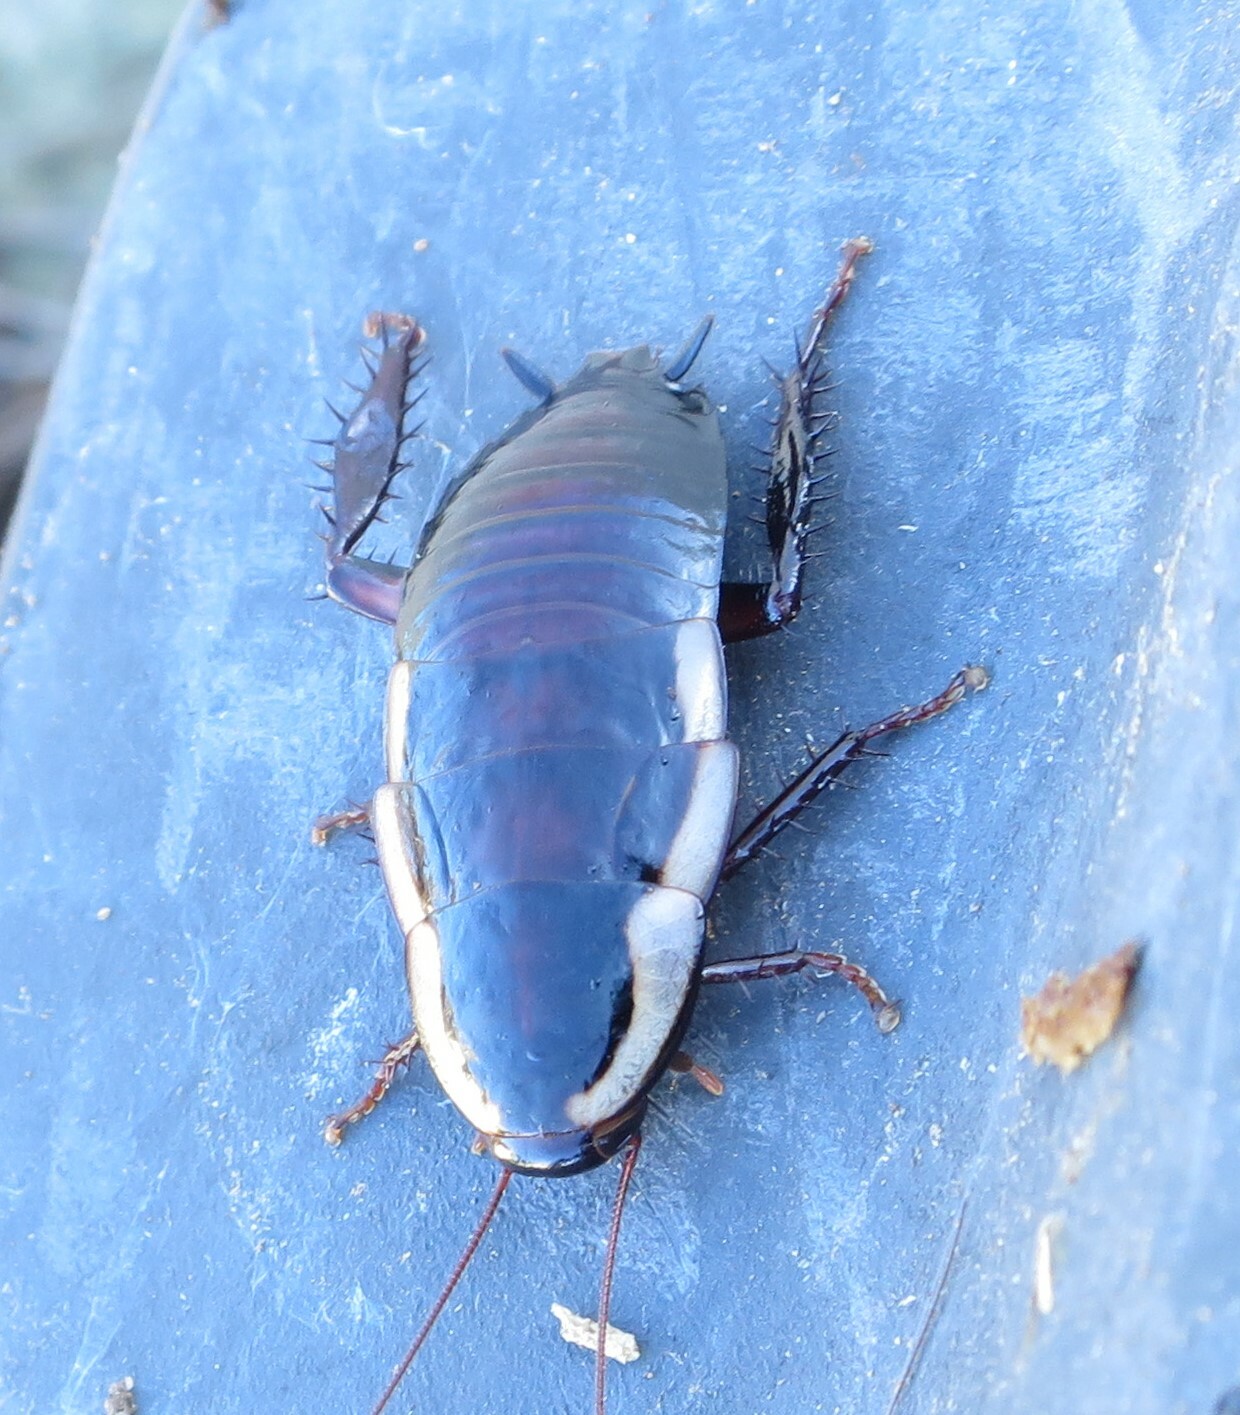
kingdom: Animalia
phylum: Arthropoda
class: Insecta
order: Blattodea
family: Blattidae
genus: Drymaplaneta
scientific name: Drymaplaneta semivitta
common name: Gisborne cockroach
